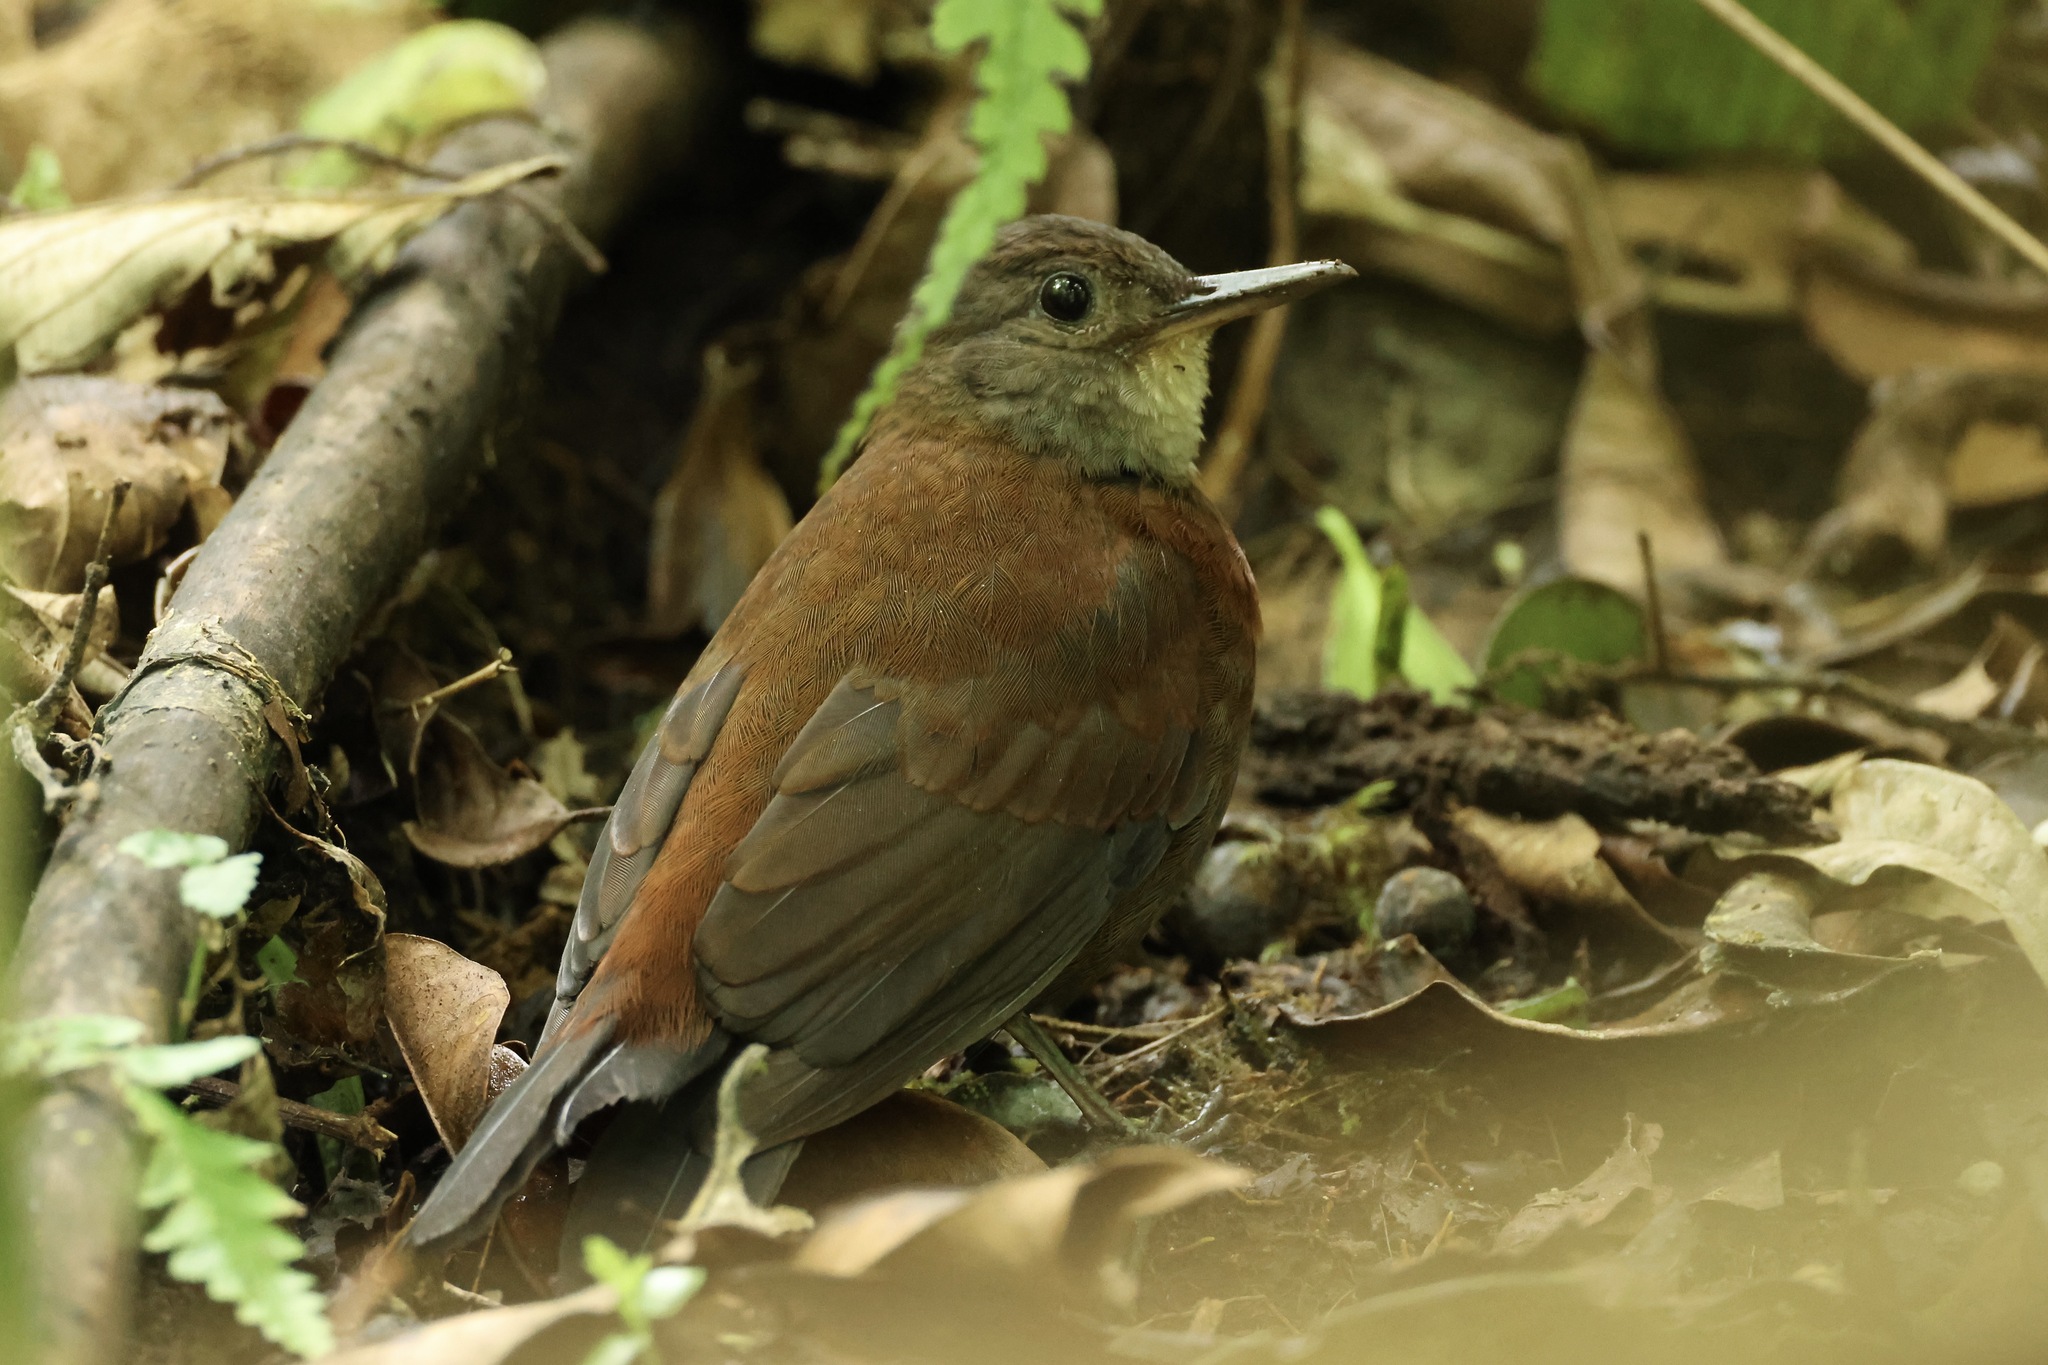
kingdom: Animalia
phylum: Chordata
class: Aves
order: Passeriformes
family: Furnariidae
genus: Sclerurus
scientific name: Sclerurus albigularis
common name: Gray-throated leaftosser
